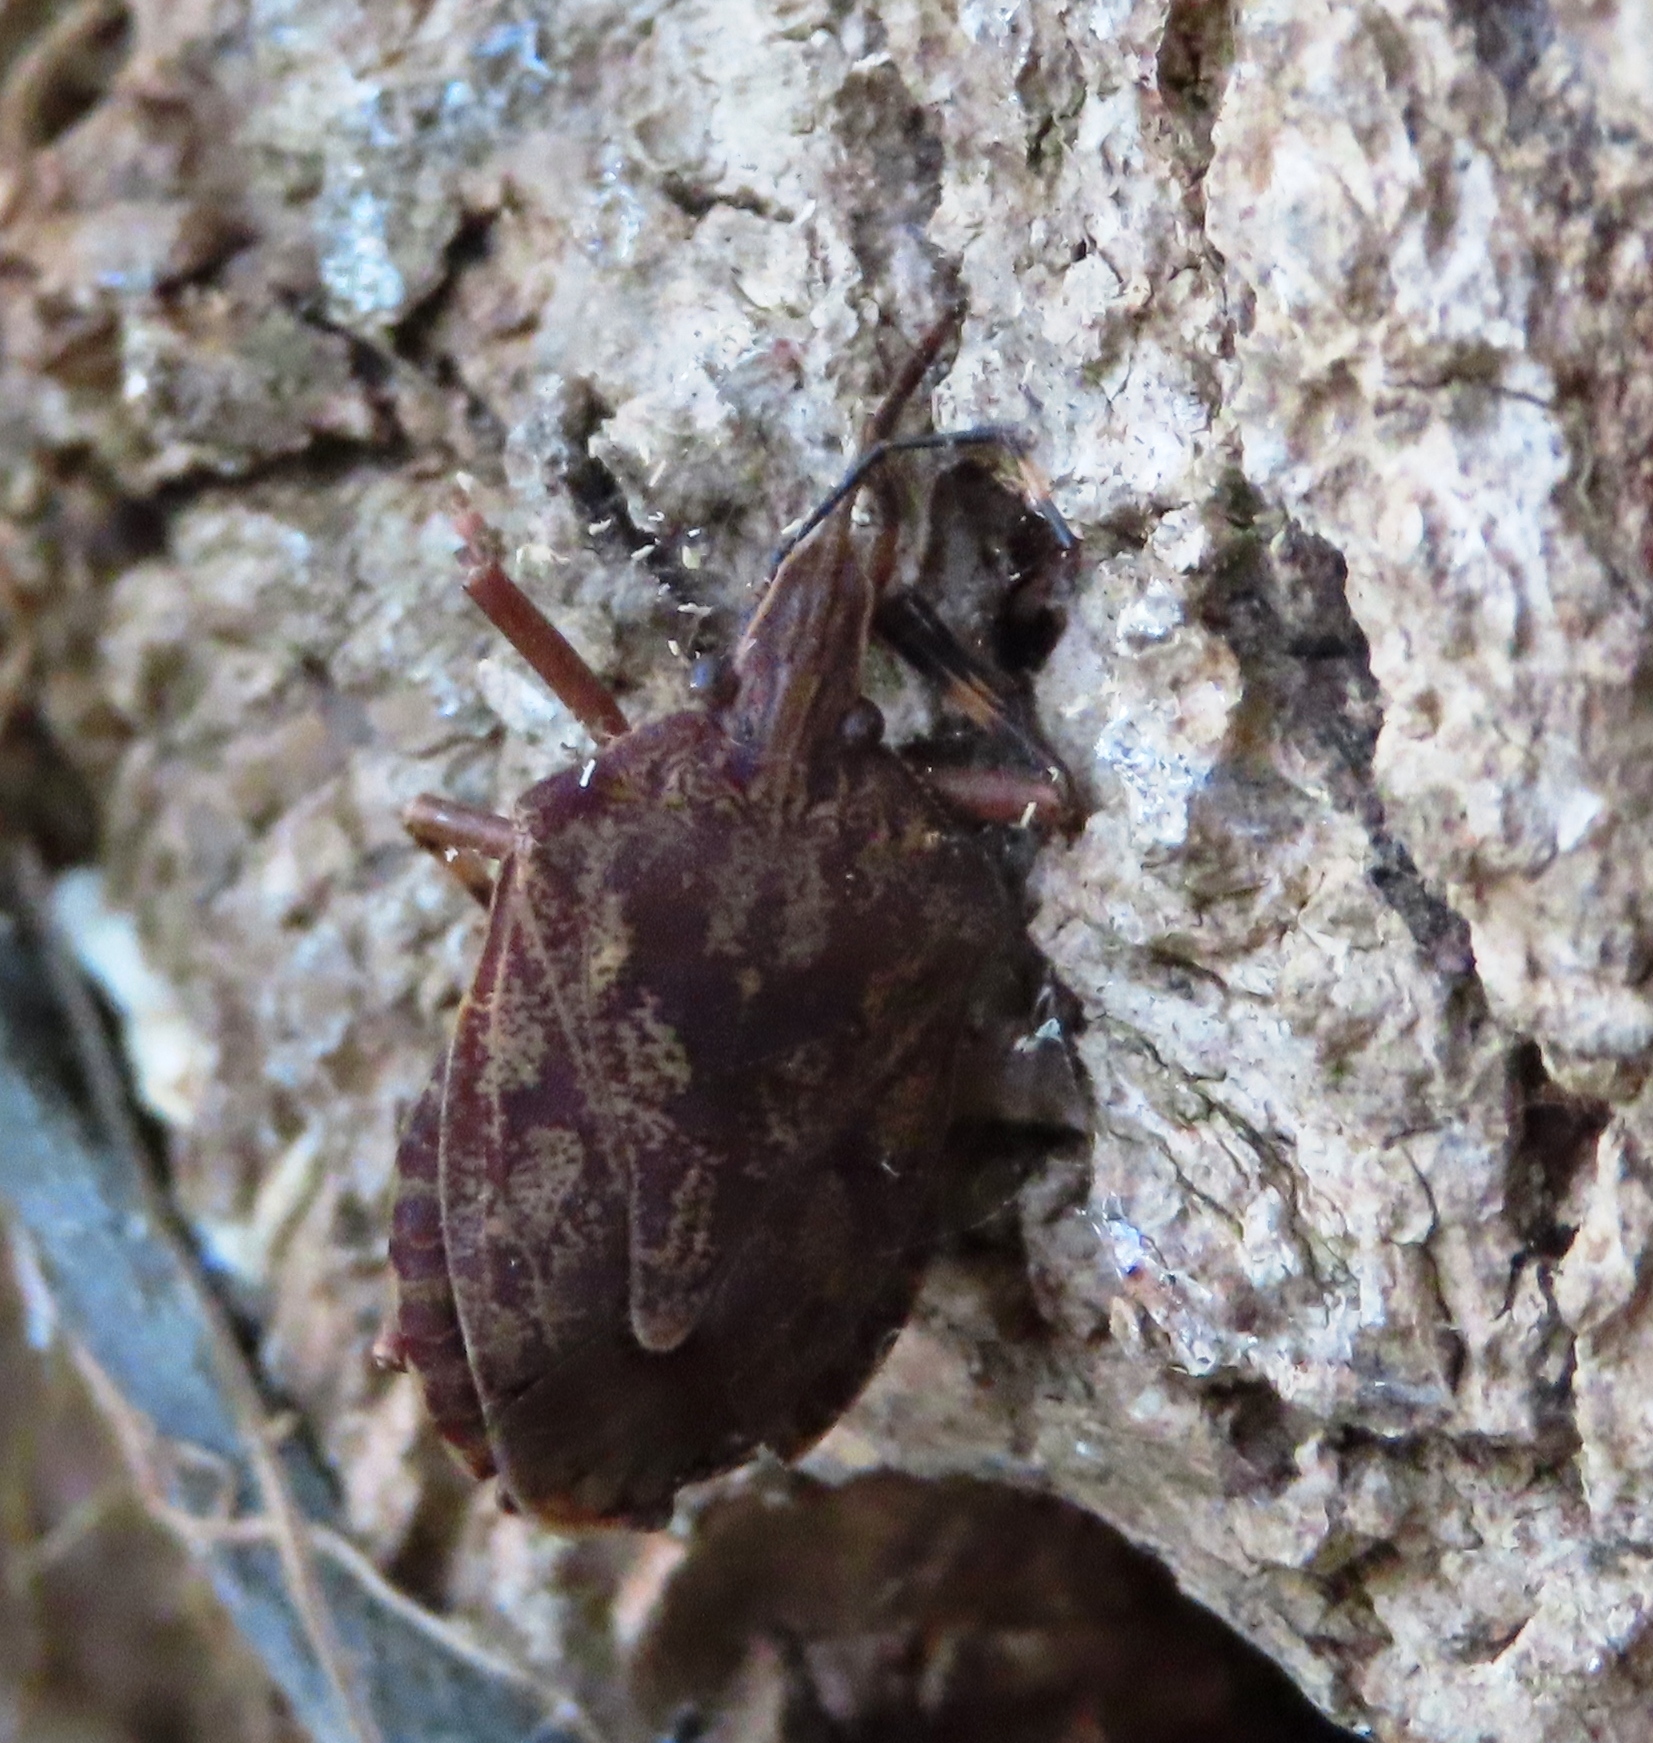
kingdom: Animalia
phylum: Arthropoda
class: Insecta
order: Hemiptera
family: Pentatomidae
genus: Coenomorpha
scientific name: Coenomorpha nervosa
